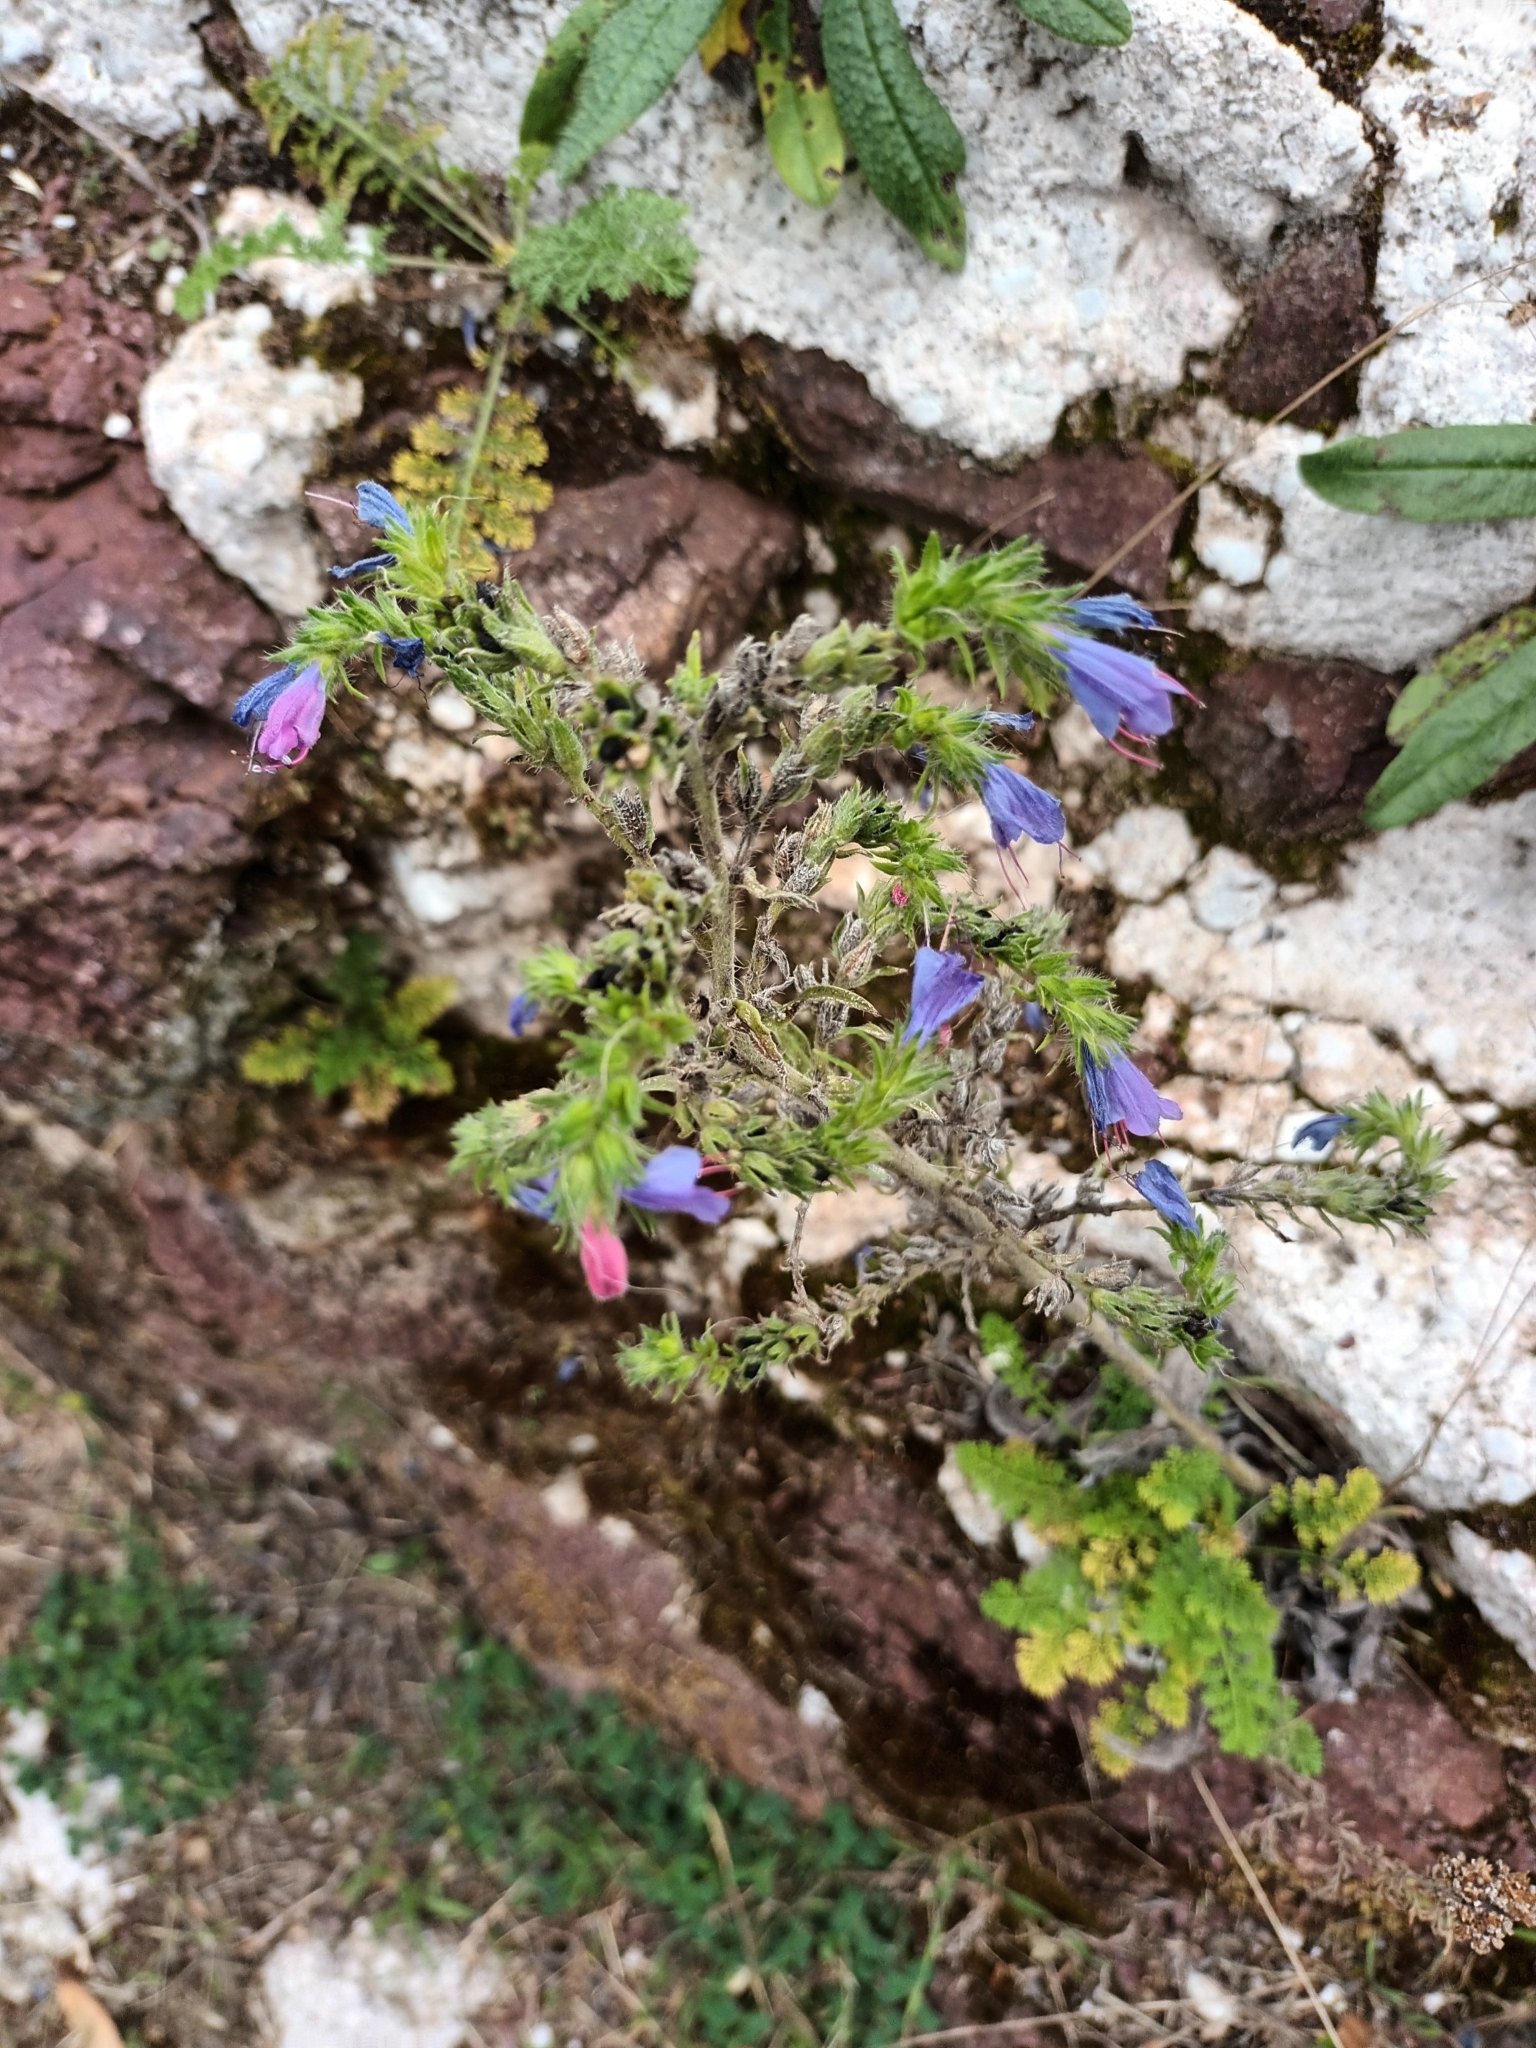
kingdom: Plantae
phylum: Tracheophyta
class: Magnoliopsida
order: Boraginales
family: Boraginaceae
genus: Echium
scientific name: Echium vulgare
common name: Common viper's bugloss
